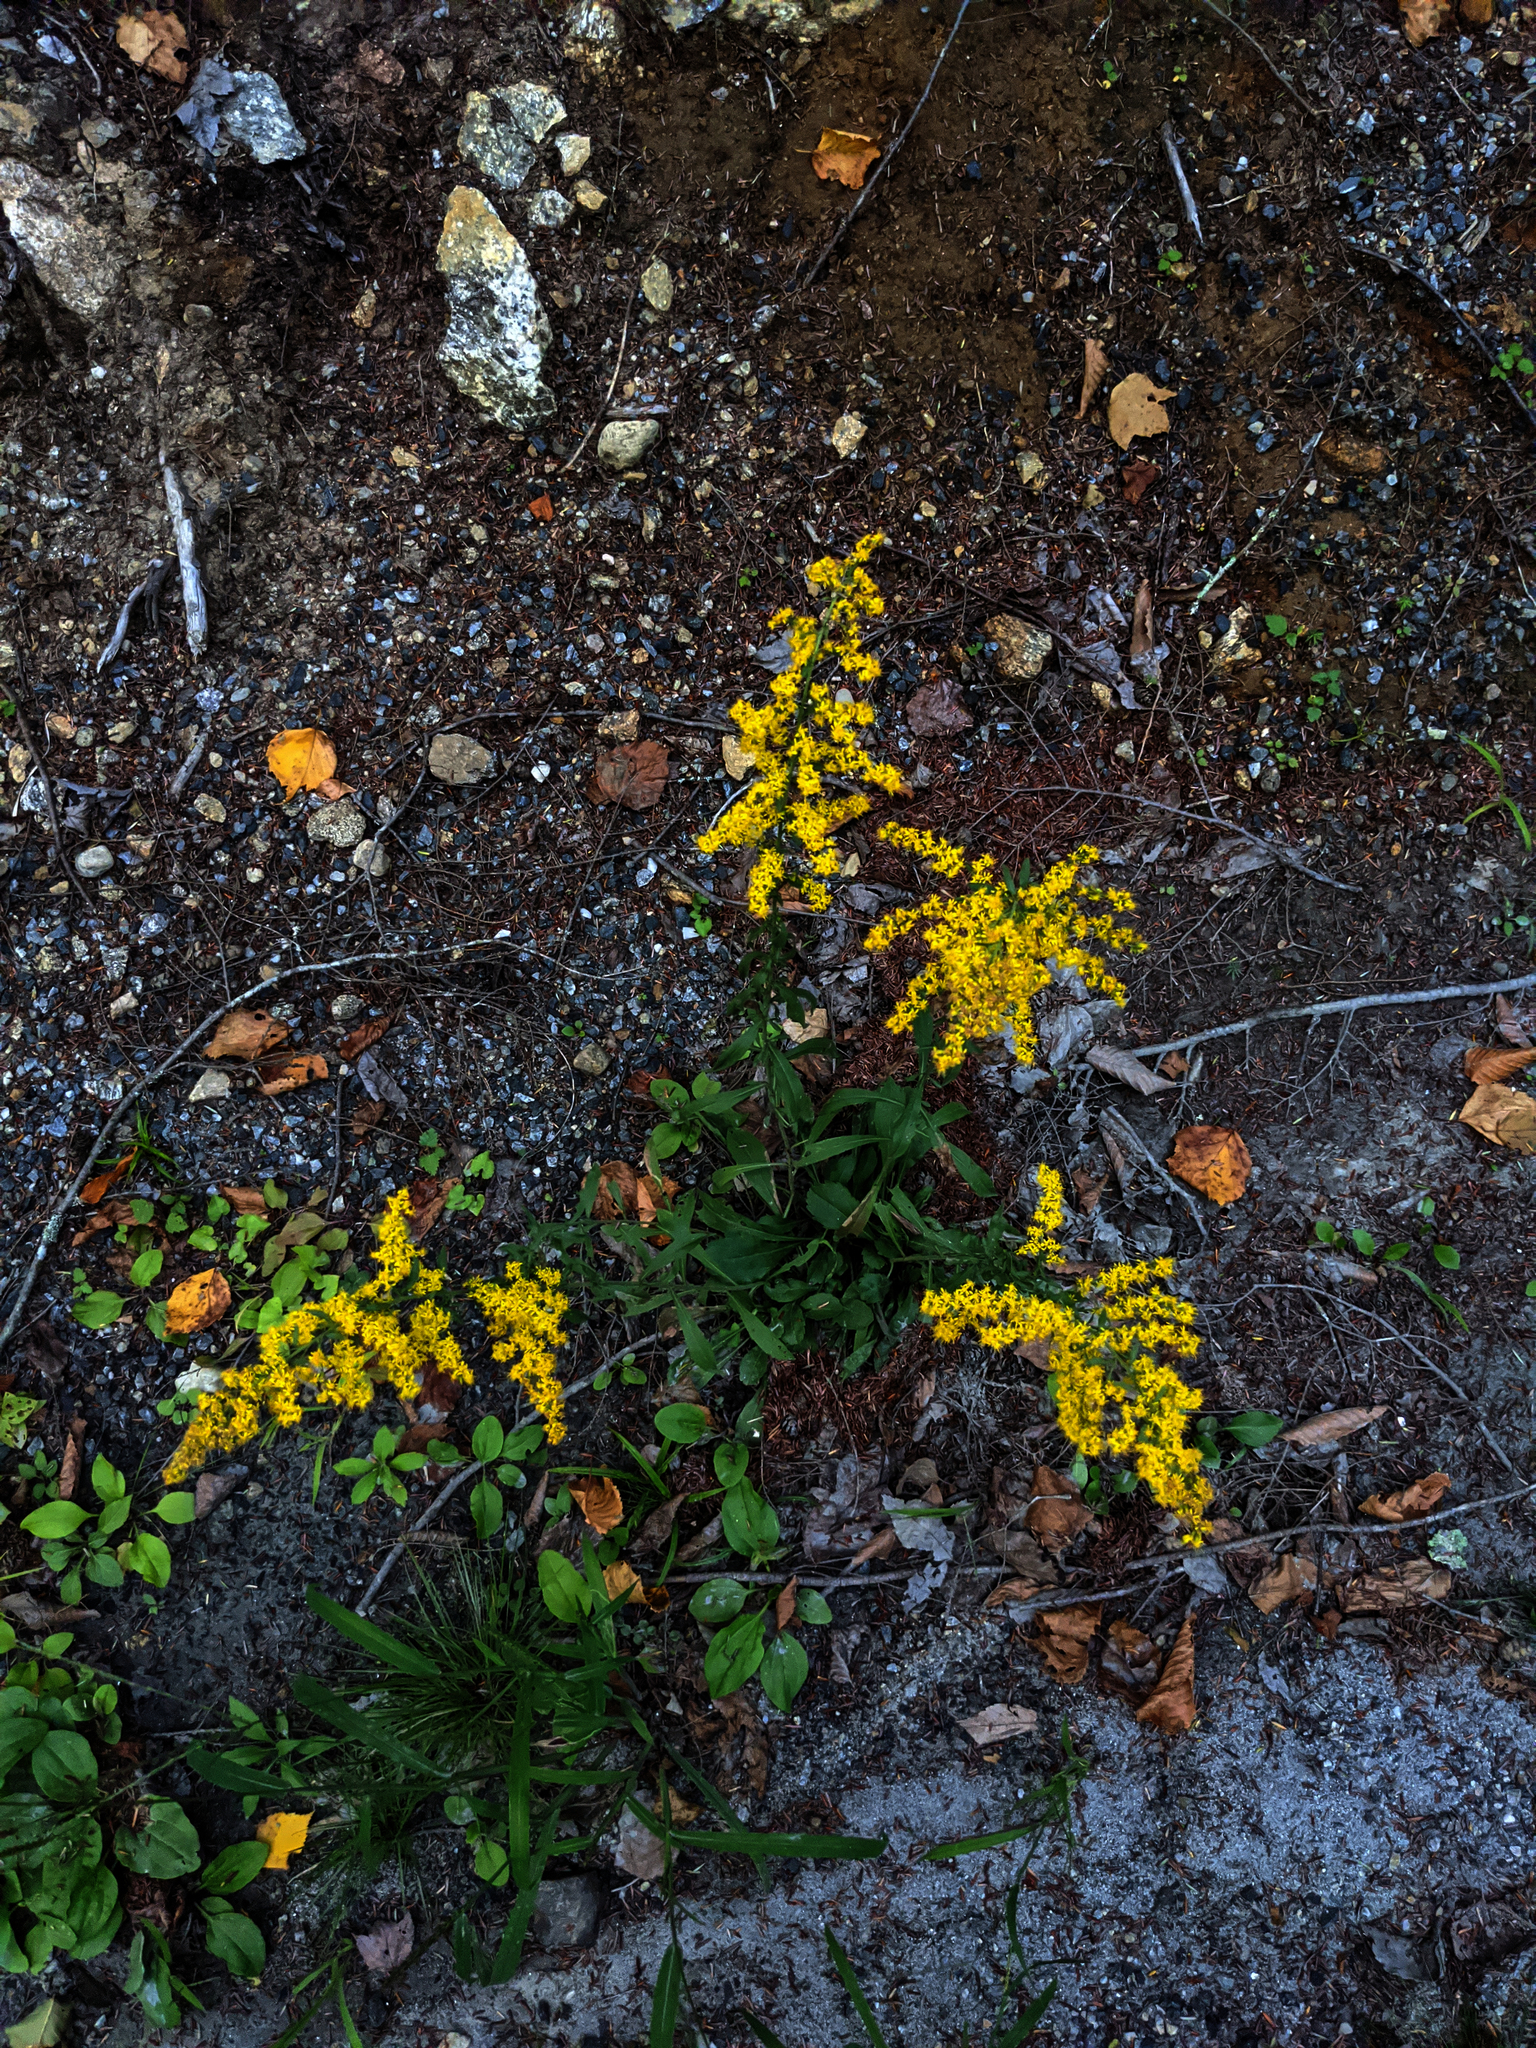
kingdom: Plantae
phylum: Tracheophyta
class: Magnoliopsida
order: Asterales
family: Asteraceae
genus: Solidago
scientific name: Solidago nemoralis
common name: Grey goldenrod
